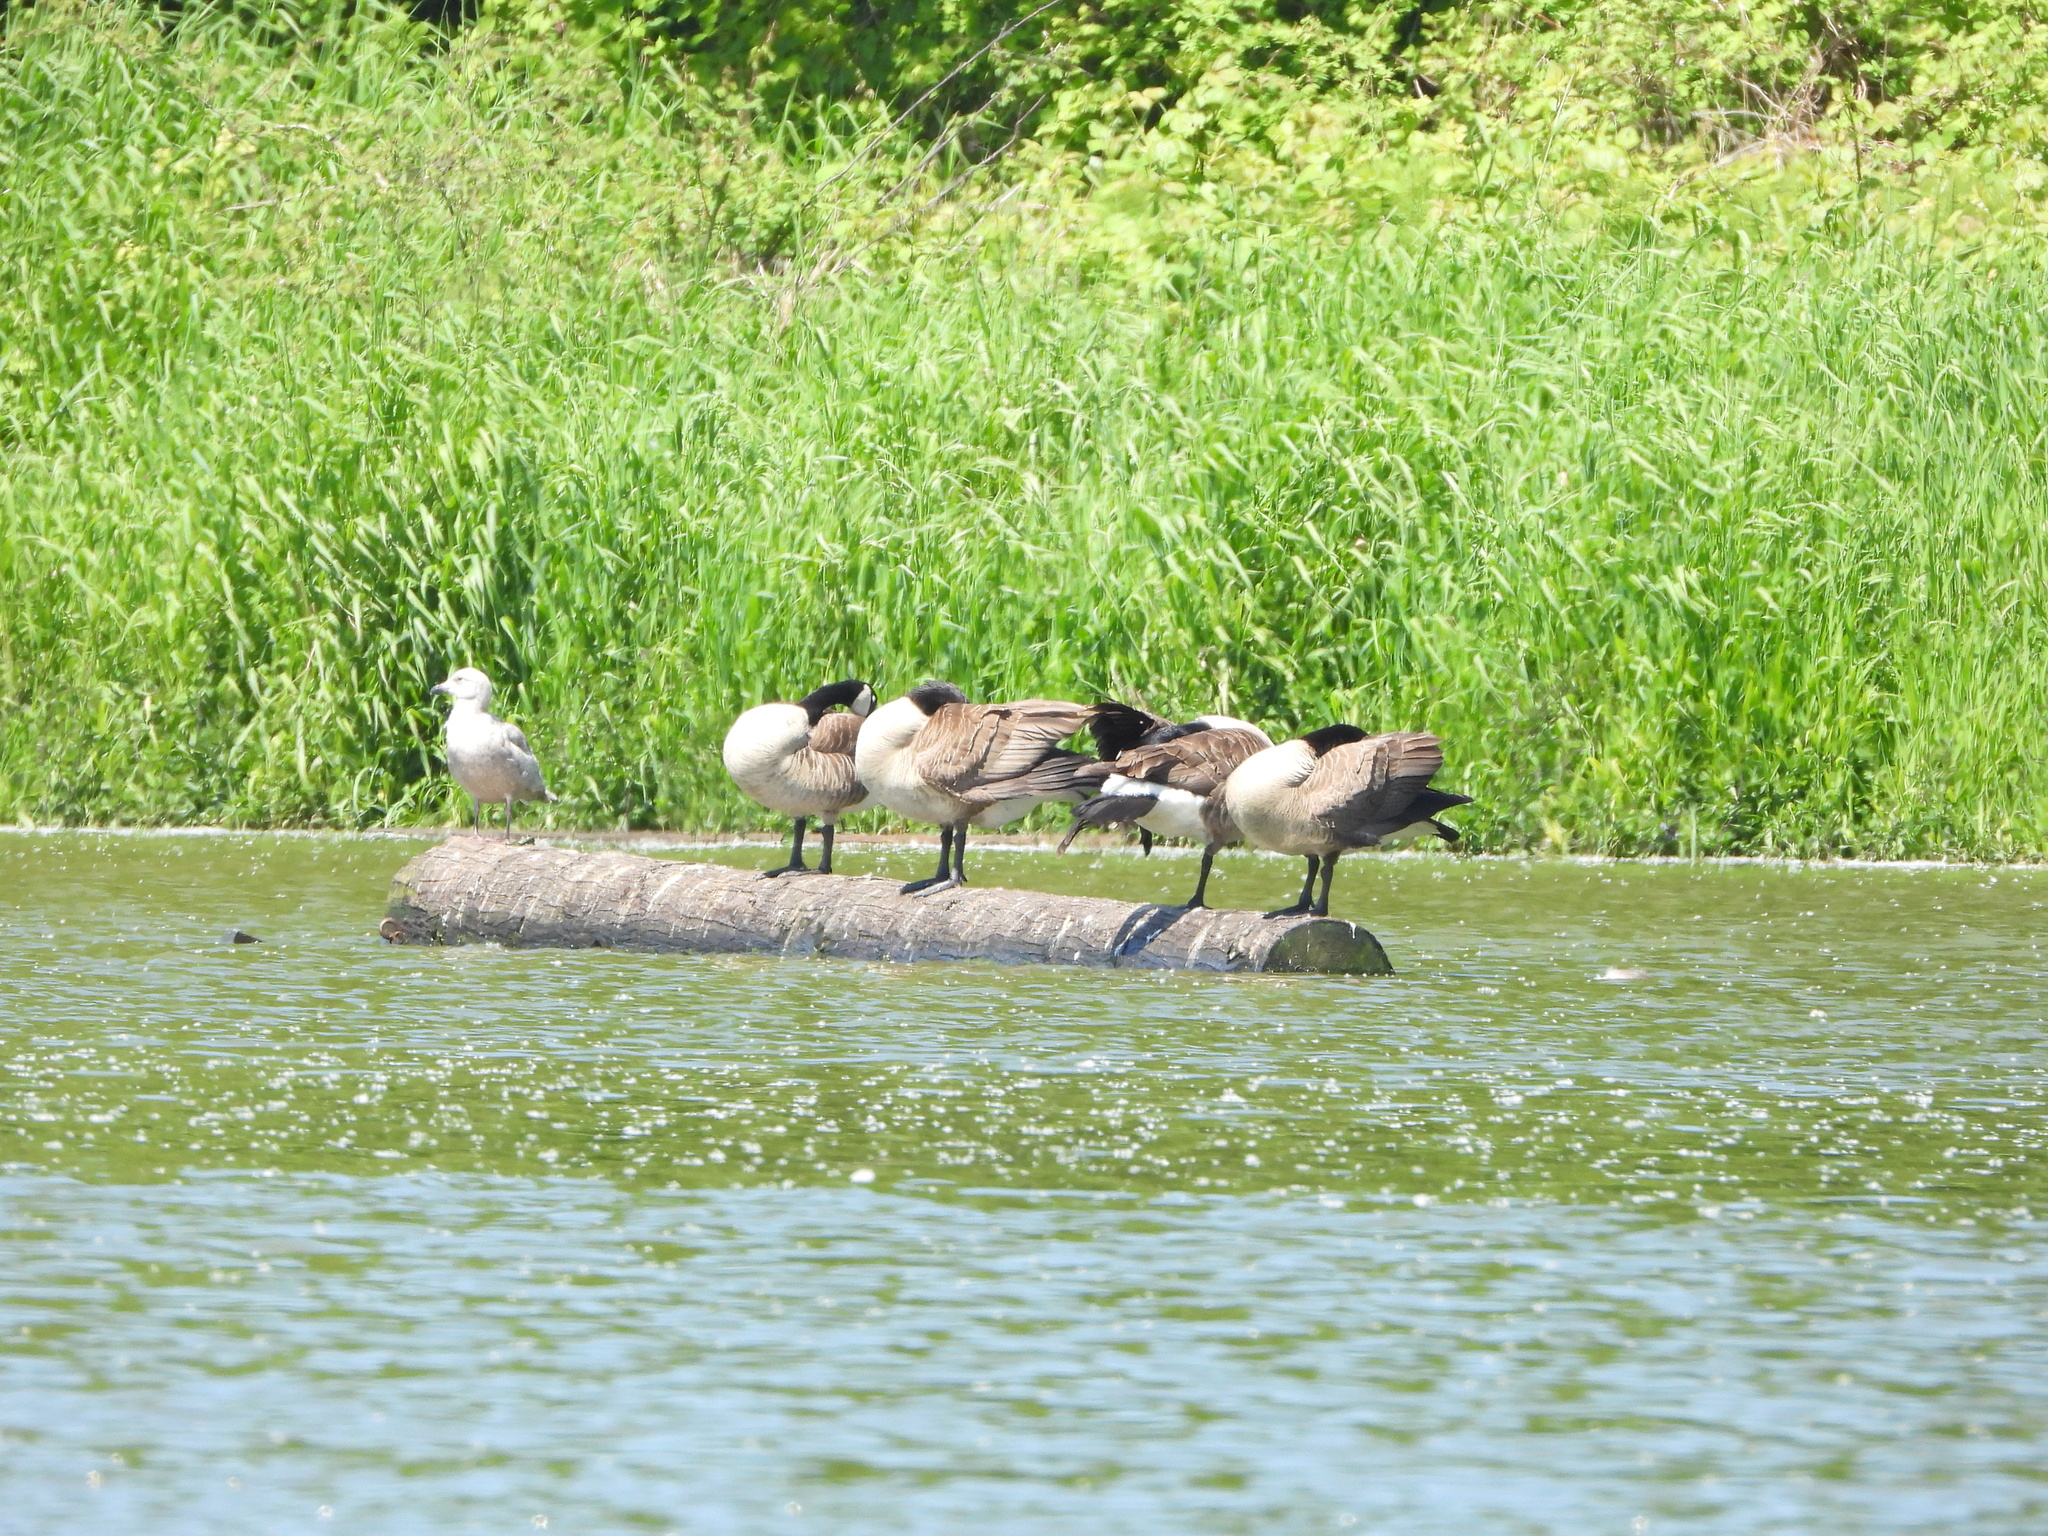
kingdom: Animalia
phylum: Chordata
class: Aves
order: Anseriformes
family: Anatidae
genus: Branta
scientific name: Branta canadensis
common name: Canada goose
